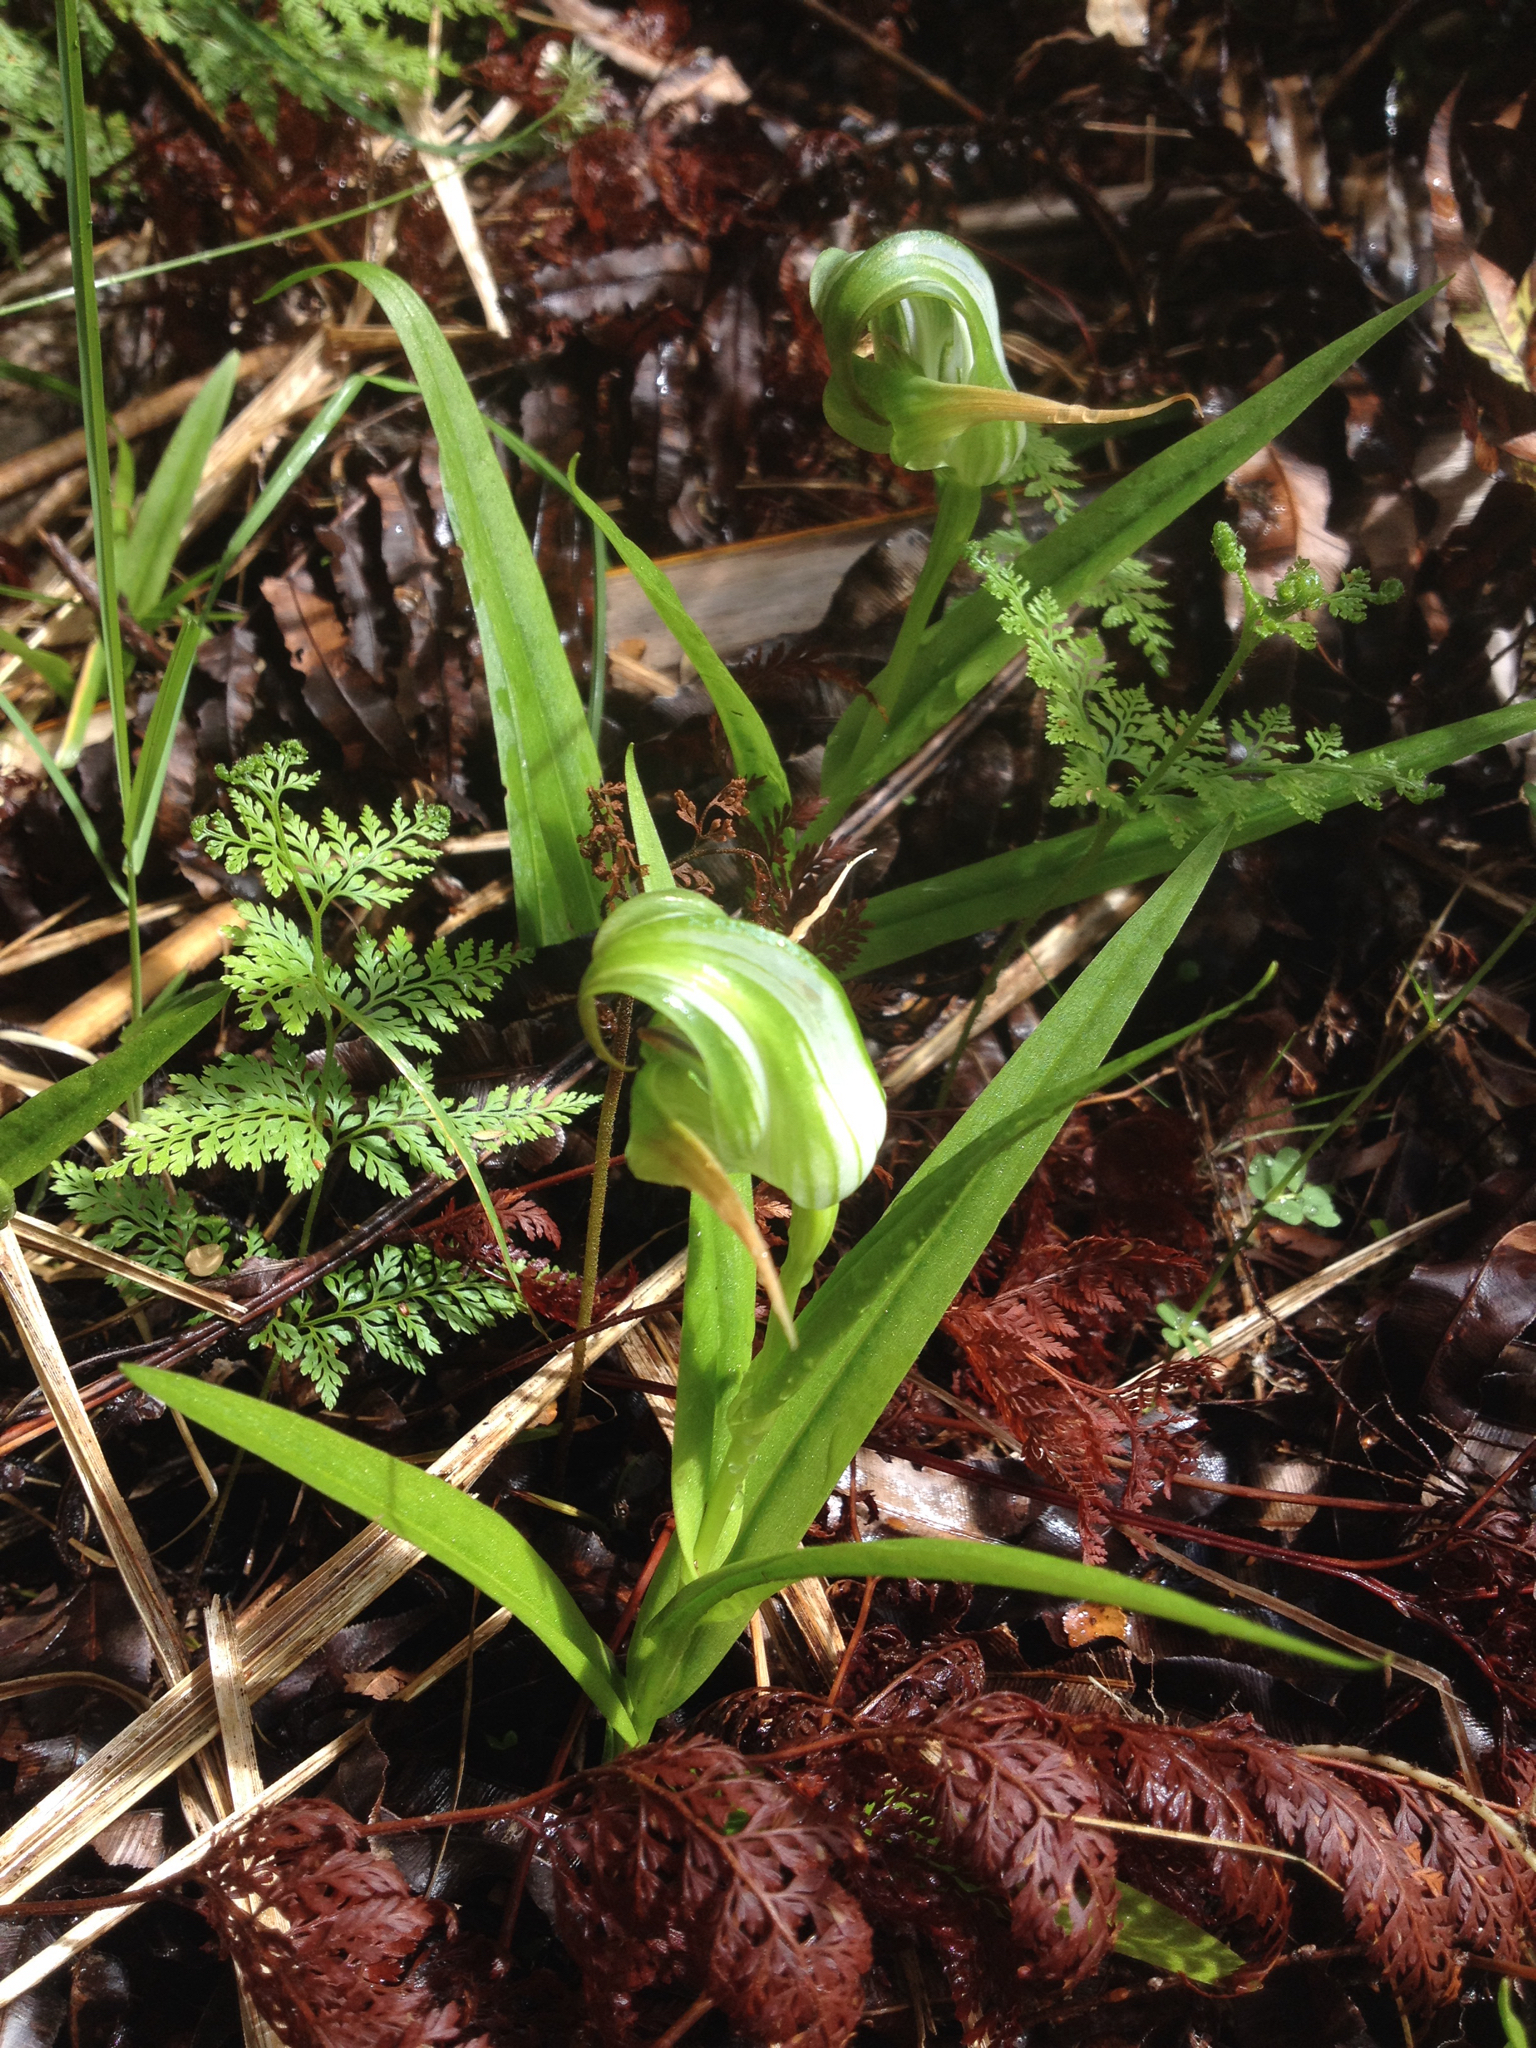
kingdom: Plantae
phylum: Tracheophyta
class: Liliopsida
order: Asparagales
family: Orchidaceae
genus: Pterostylis
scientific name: Pterostylis patens
